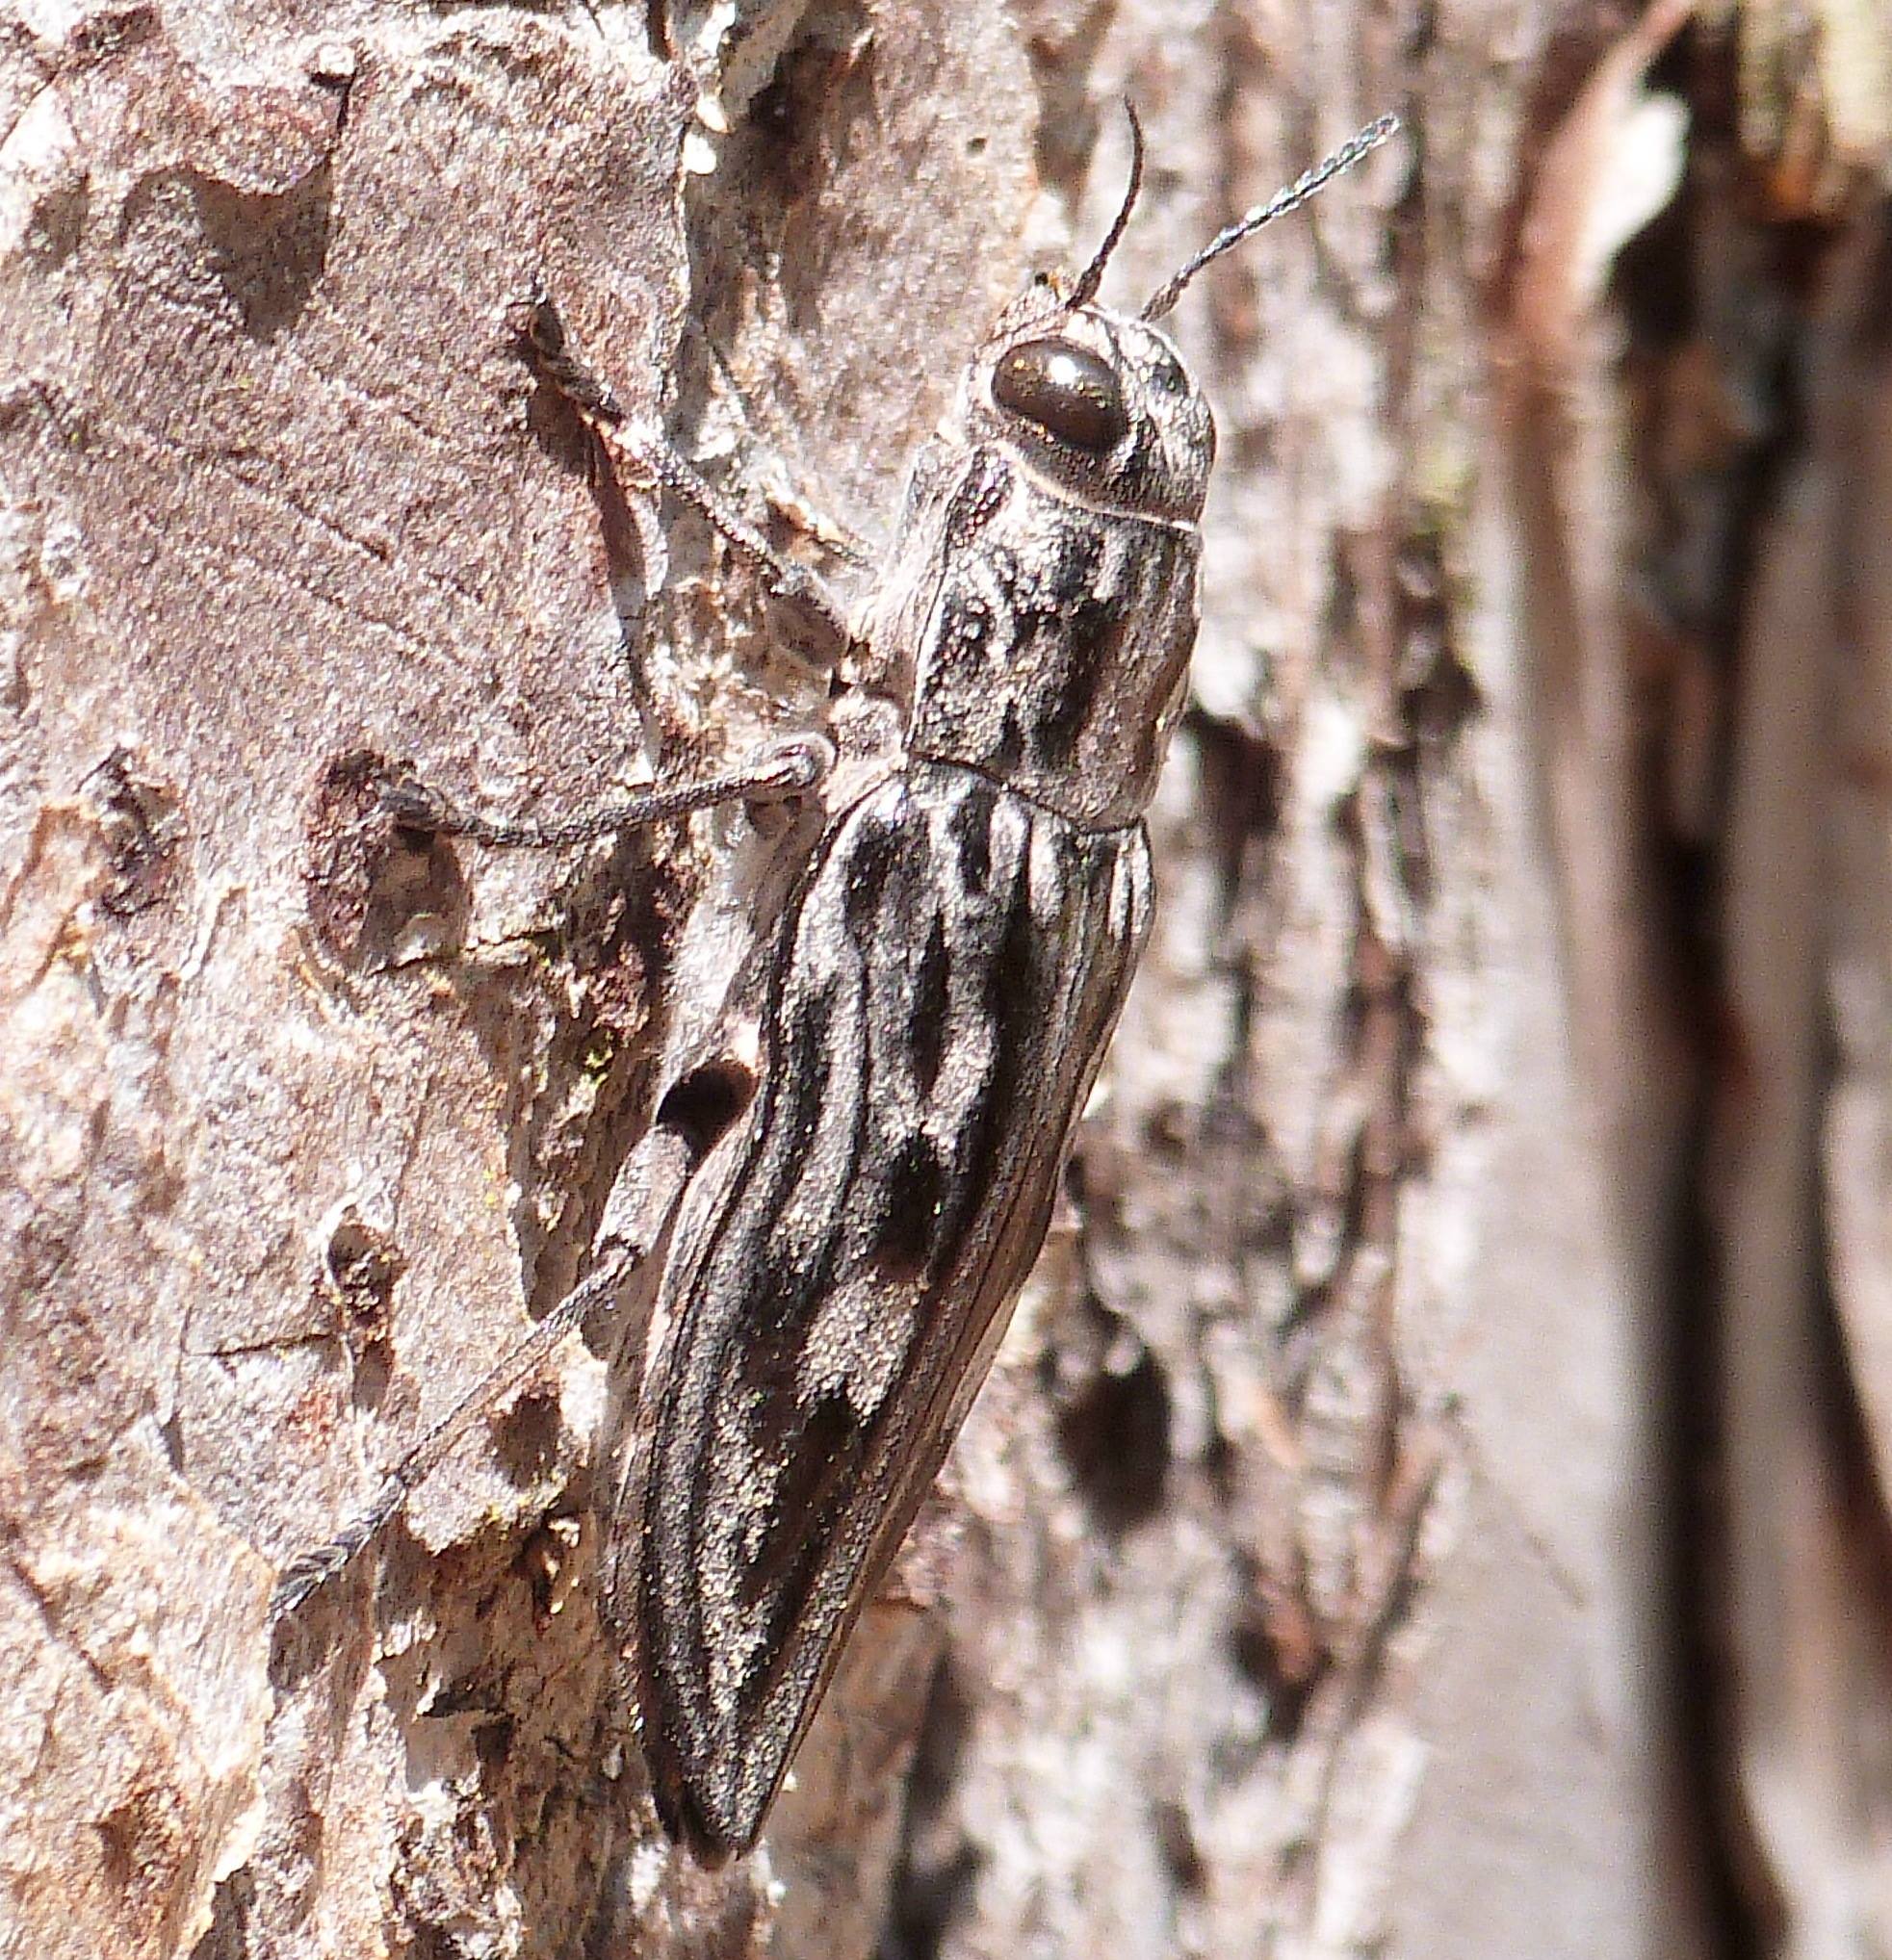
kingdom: Animalia
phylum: Arthropoda
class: Insecta
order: Coleoptera
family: Buprestidae
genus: Chalcophora
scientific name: Chalcophora virginiensis
